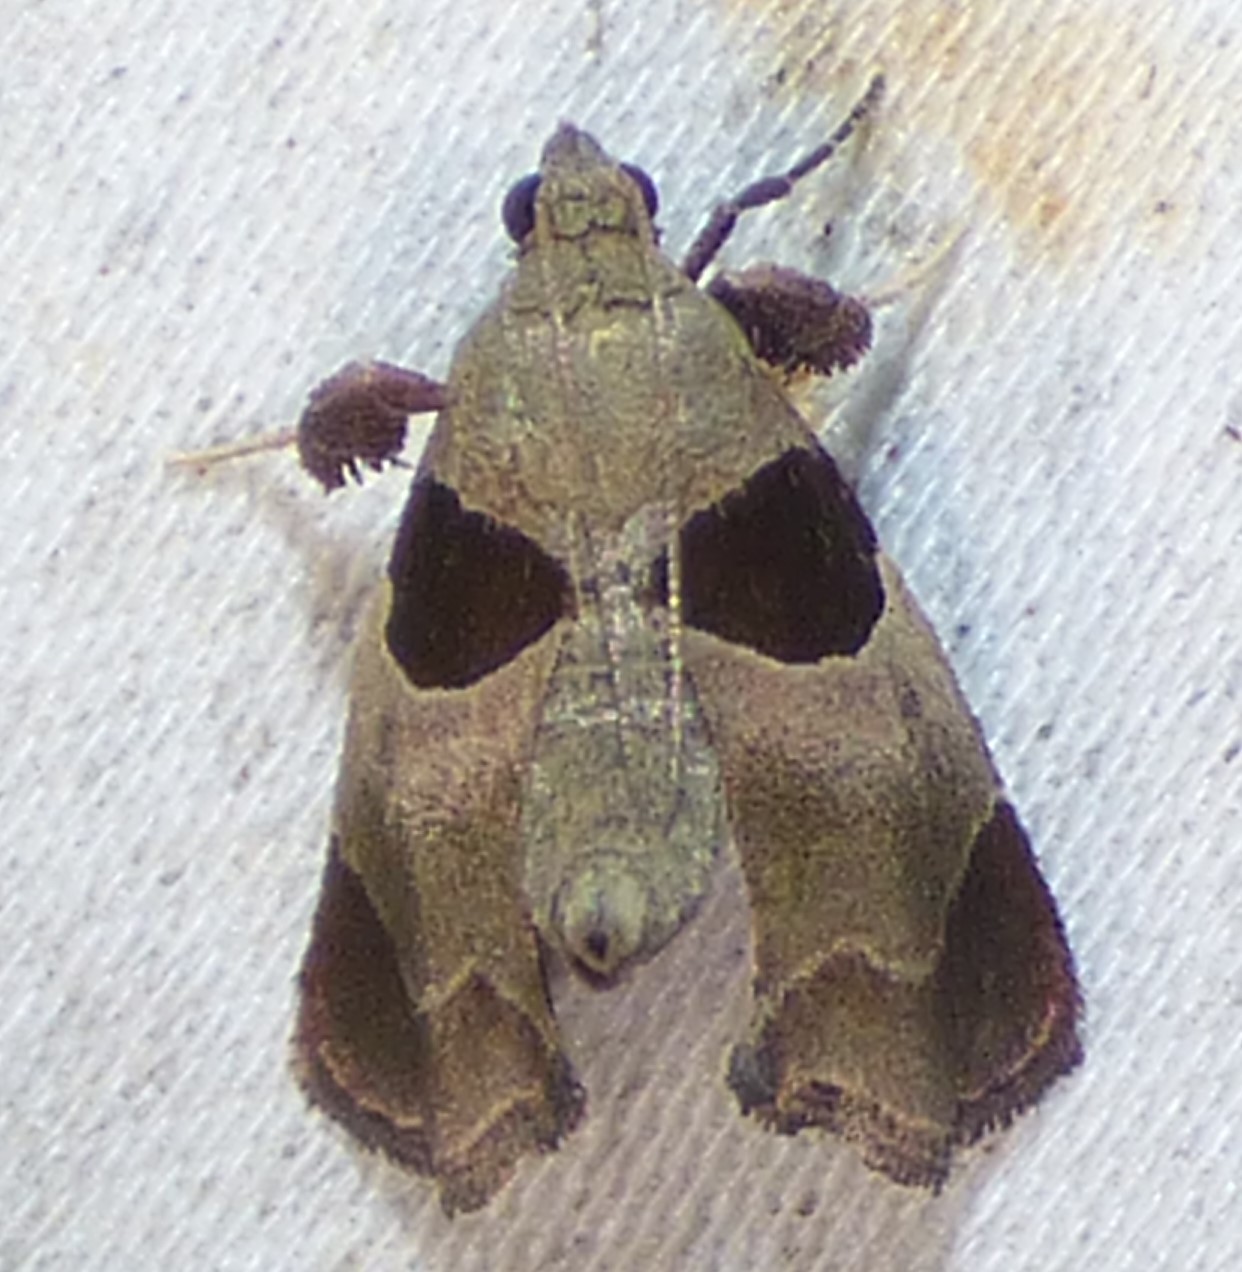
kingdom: Animalia
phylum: Arthropoda
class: Insecta
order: Lepidoptera
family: Pyralidae
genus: Tosale
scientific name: Tosale oviplagalis
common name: Dimorphic tosale moth
